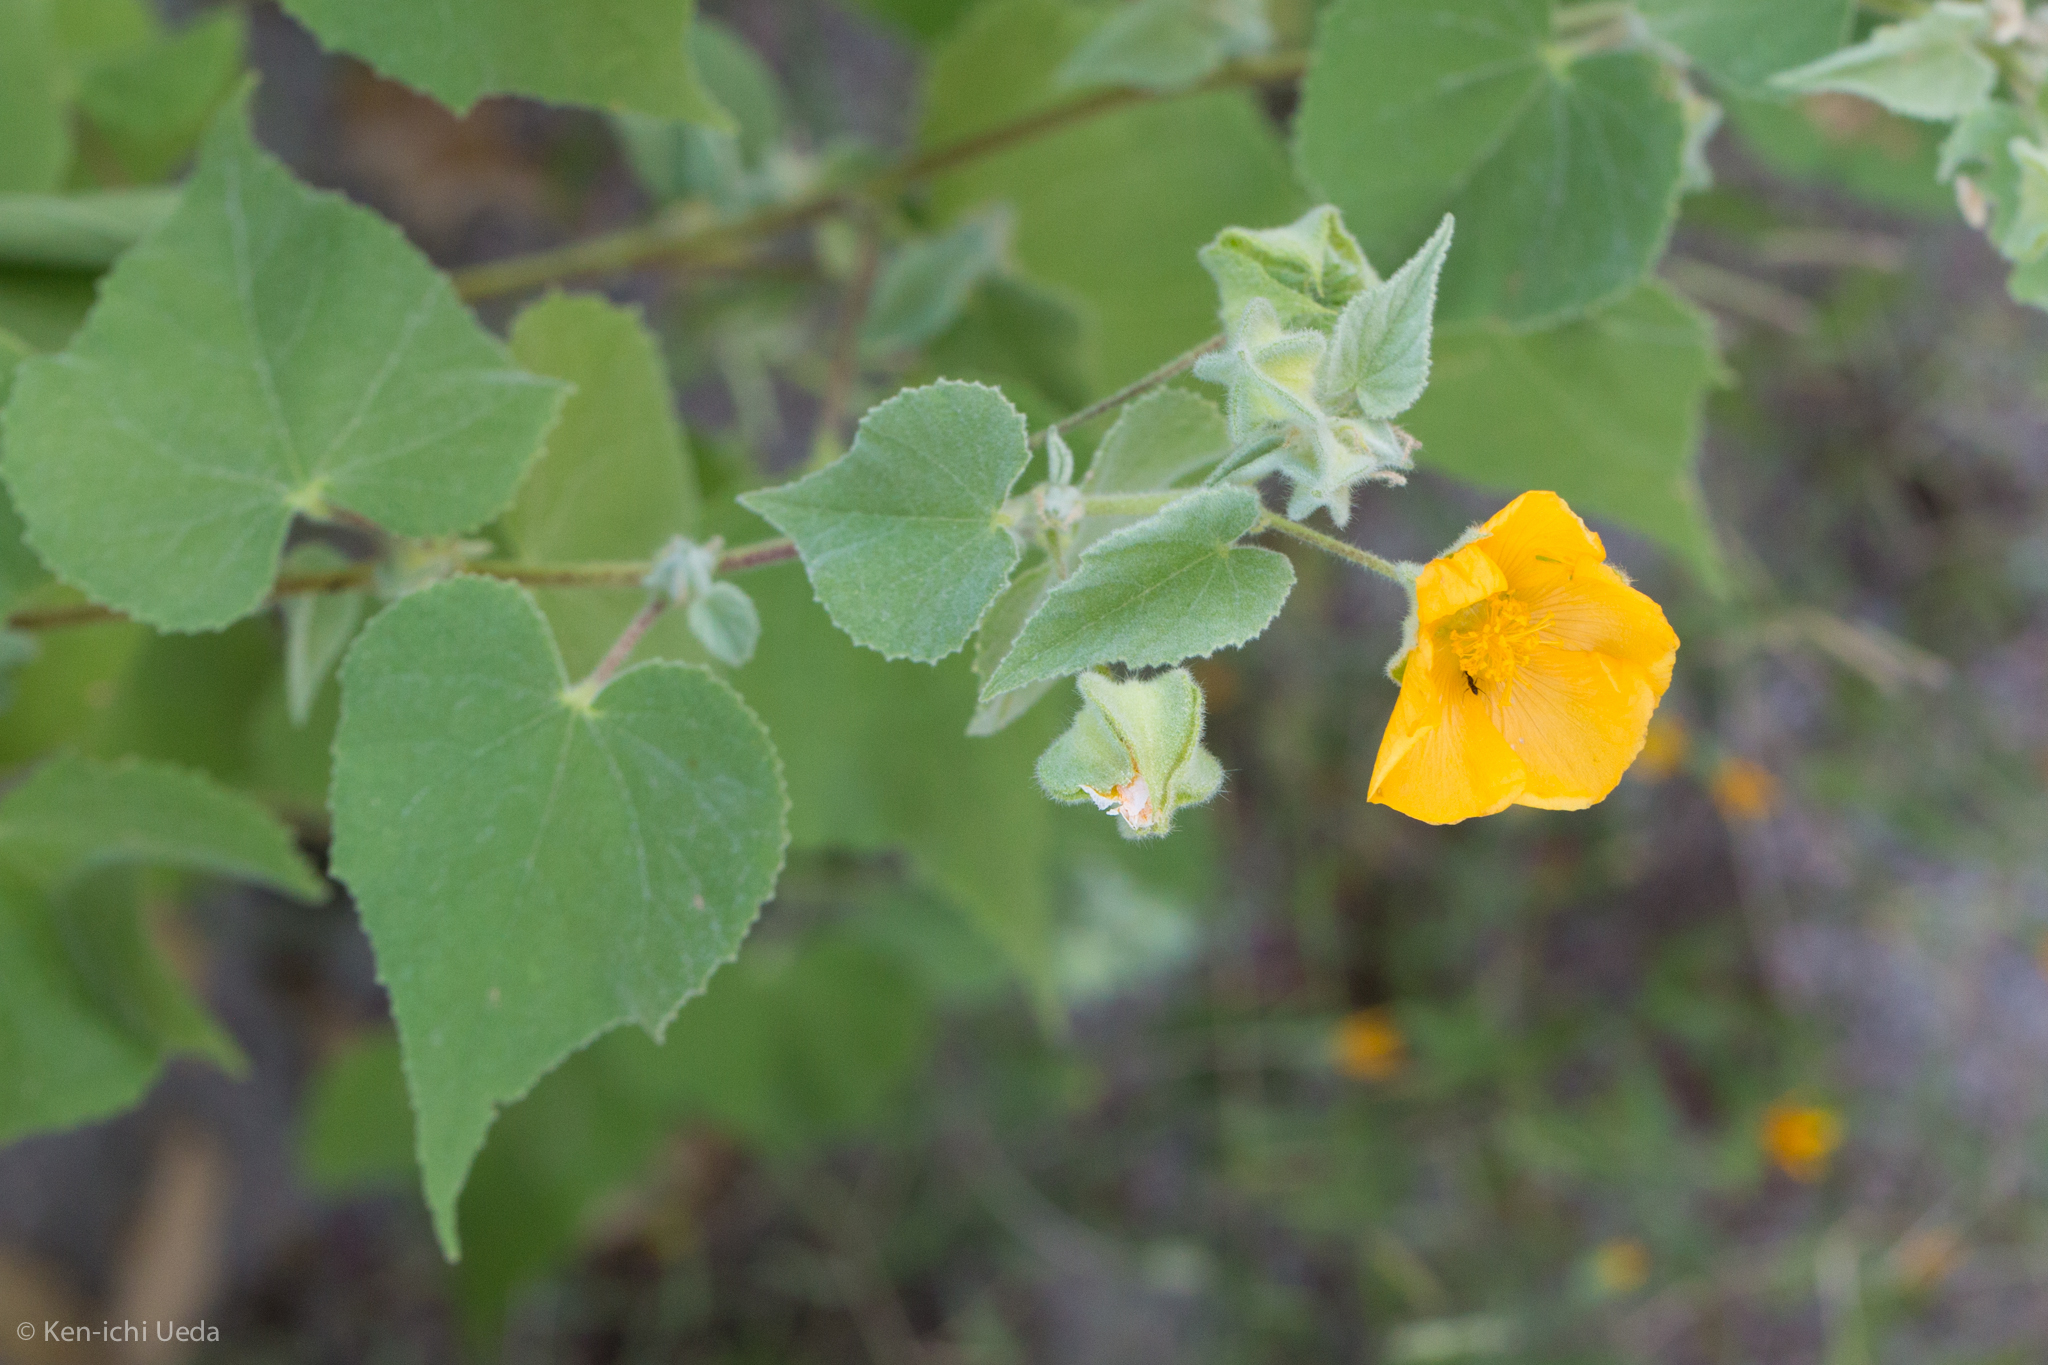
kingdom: Plantae
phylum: Tracheophyta
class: Magnoliopsida
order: Malvales
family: Malvaceae
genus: Abutilon
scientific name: Abutilon palmeri
